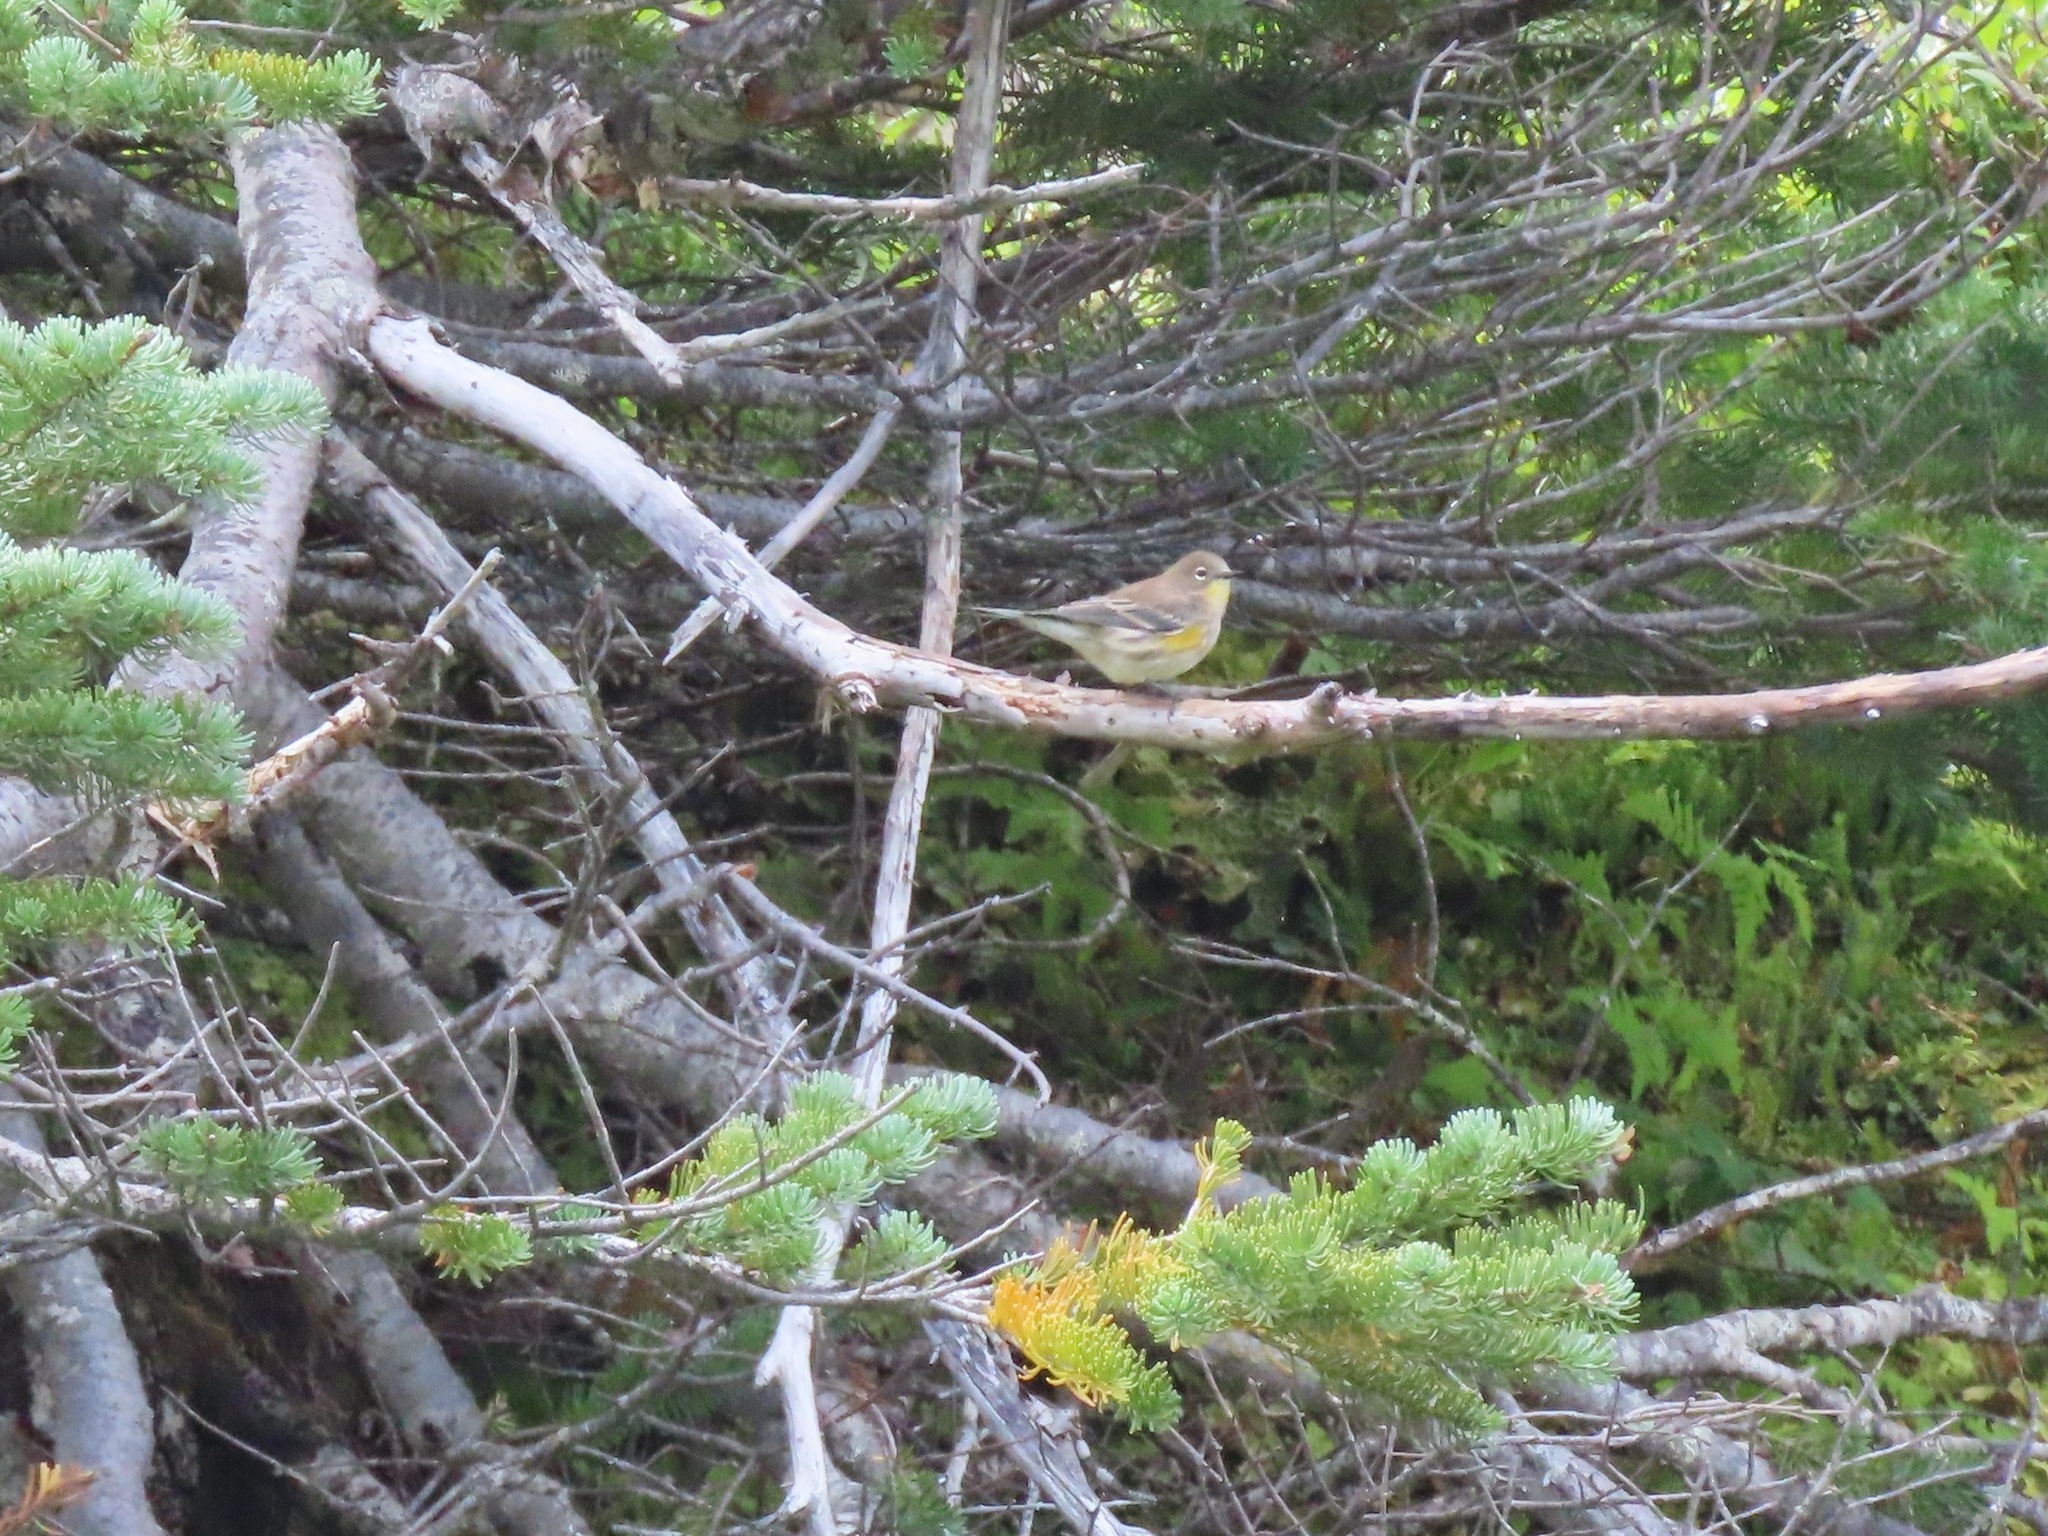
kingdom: Animalia
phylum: Chordata
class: Aves
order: Passeriformes
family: Parulidae
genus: Setophaga
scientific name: Setophaga coronata
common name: Myrtle warbler
